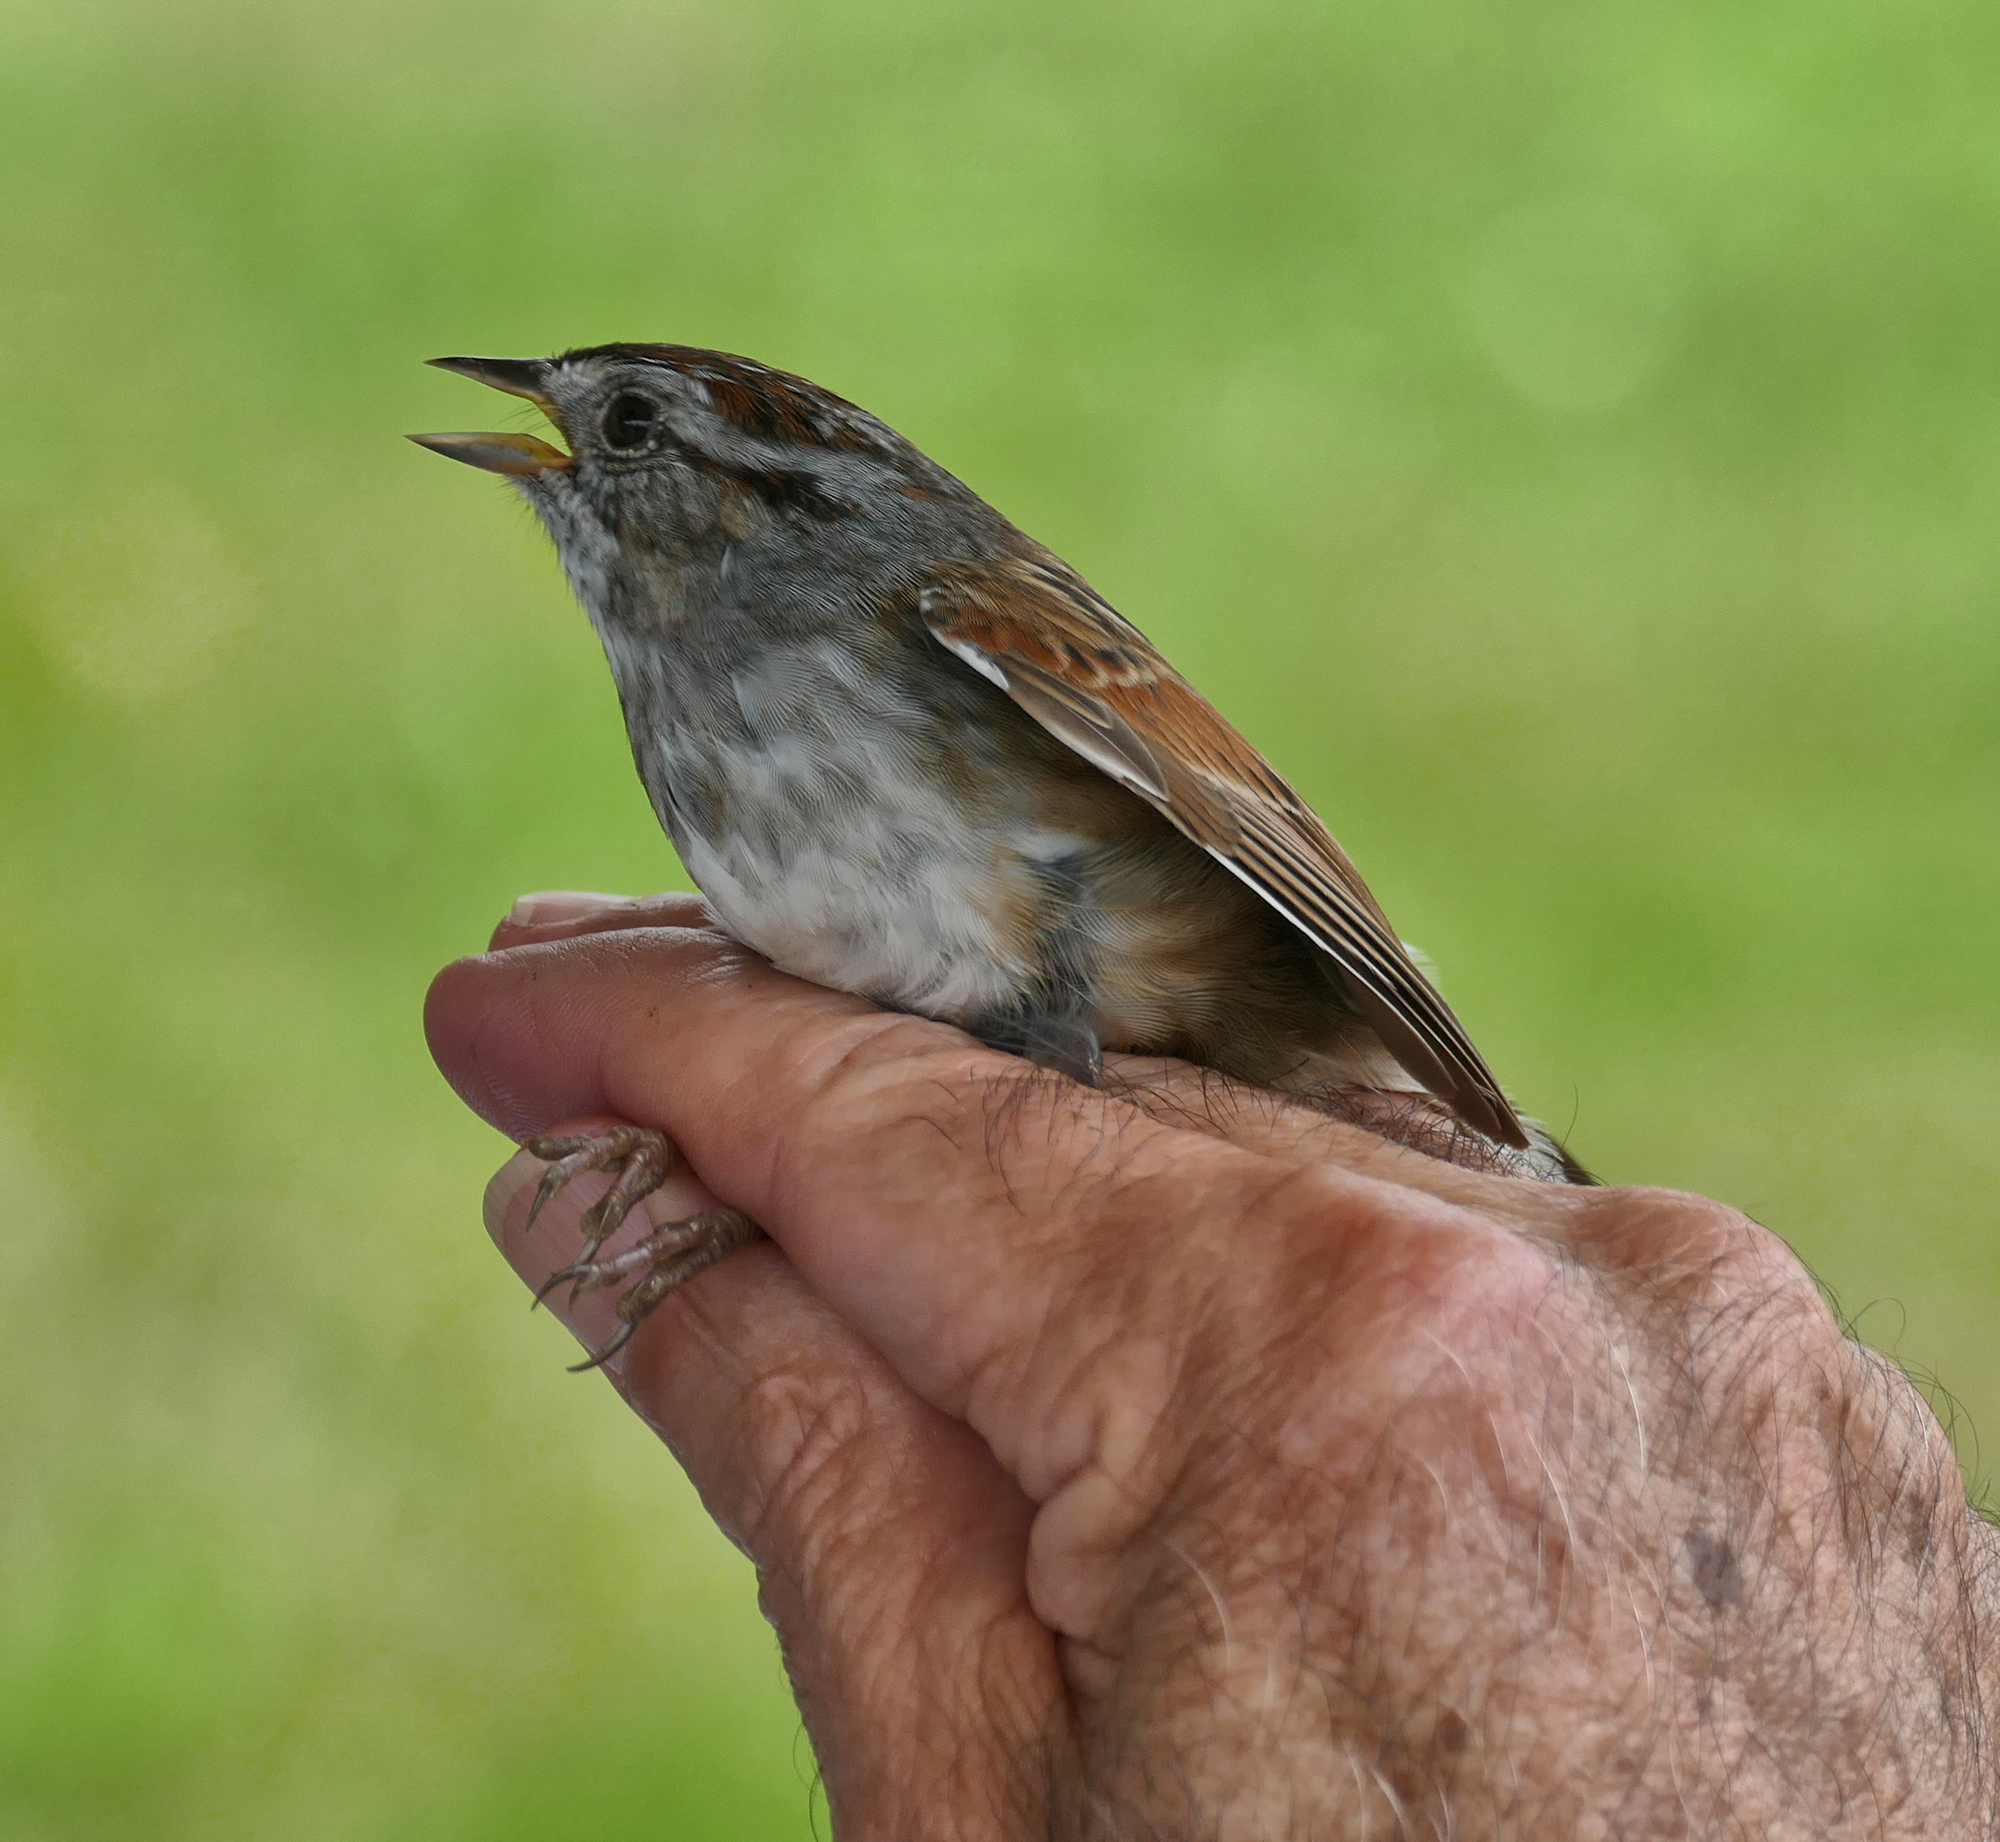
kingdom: Animalia
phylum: Chordata
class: Aves
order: Passeriformes
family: Passerellidae
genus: Melospiza
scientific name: Melospiza georgiana
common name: Swamp sparrow
